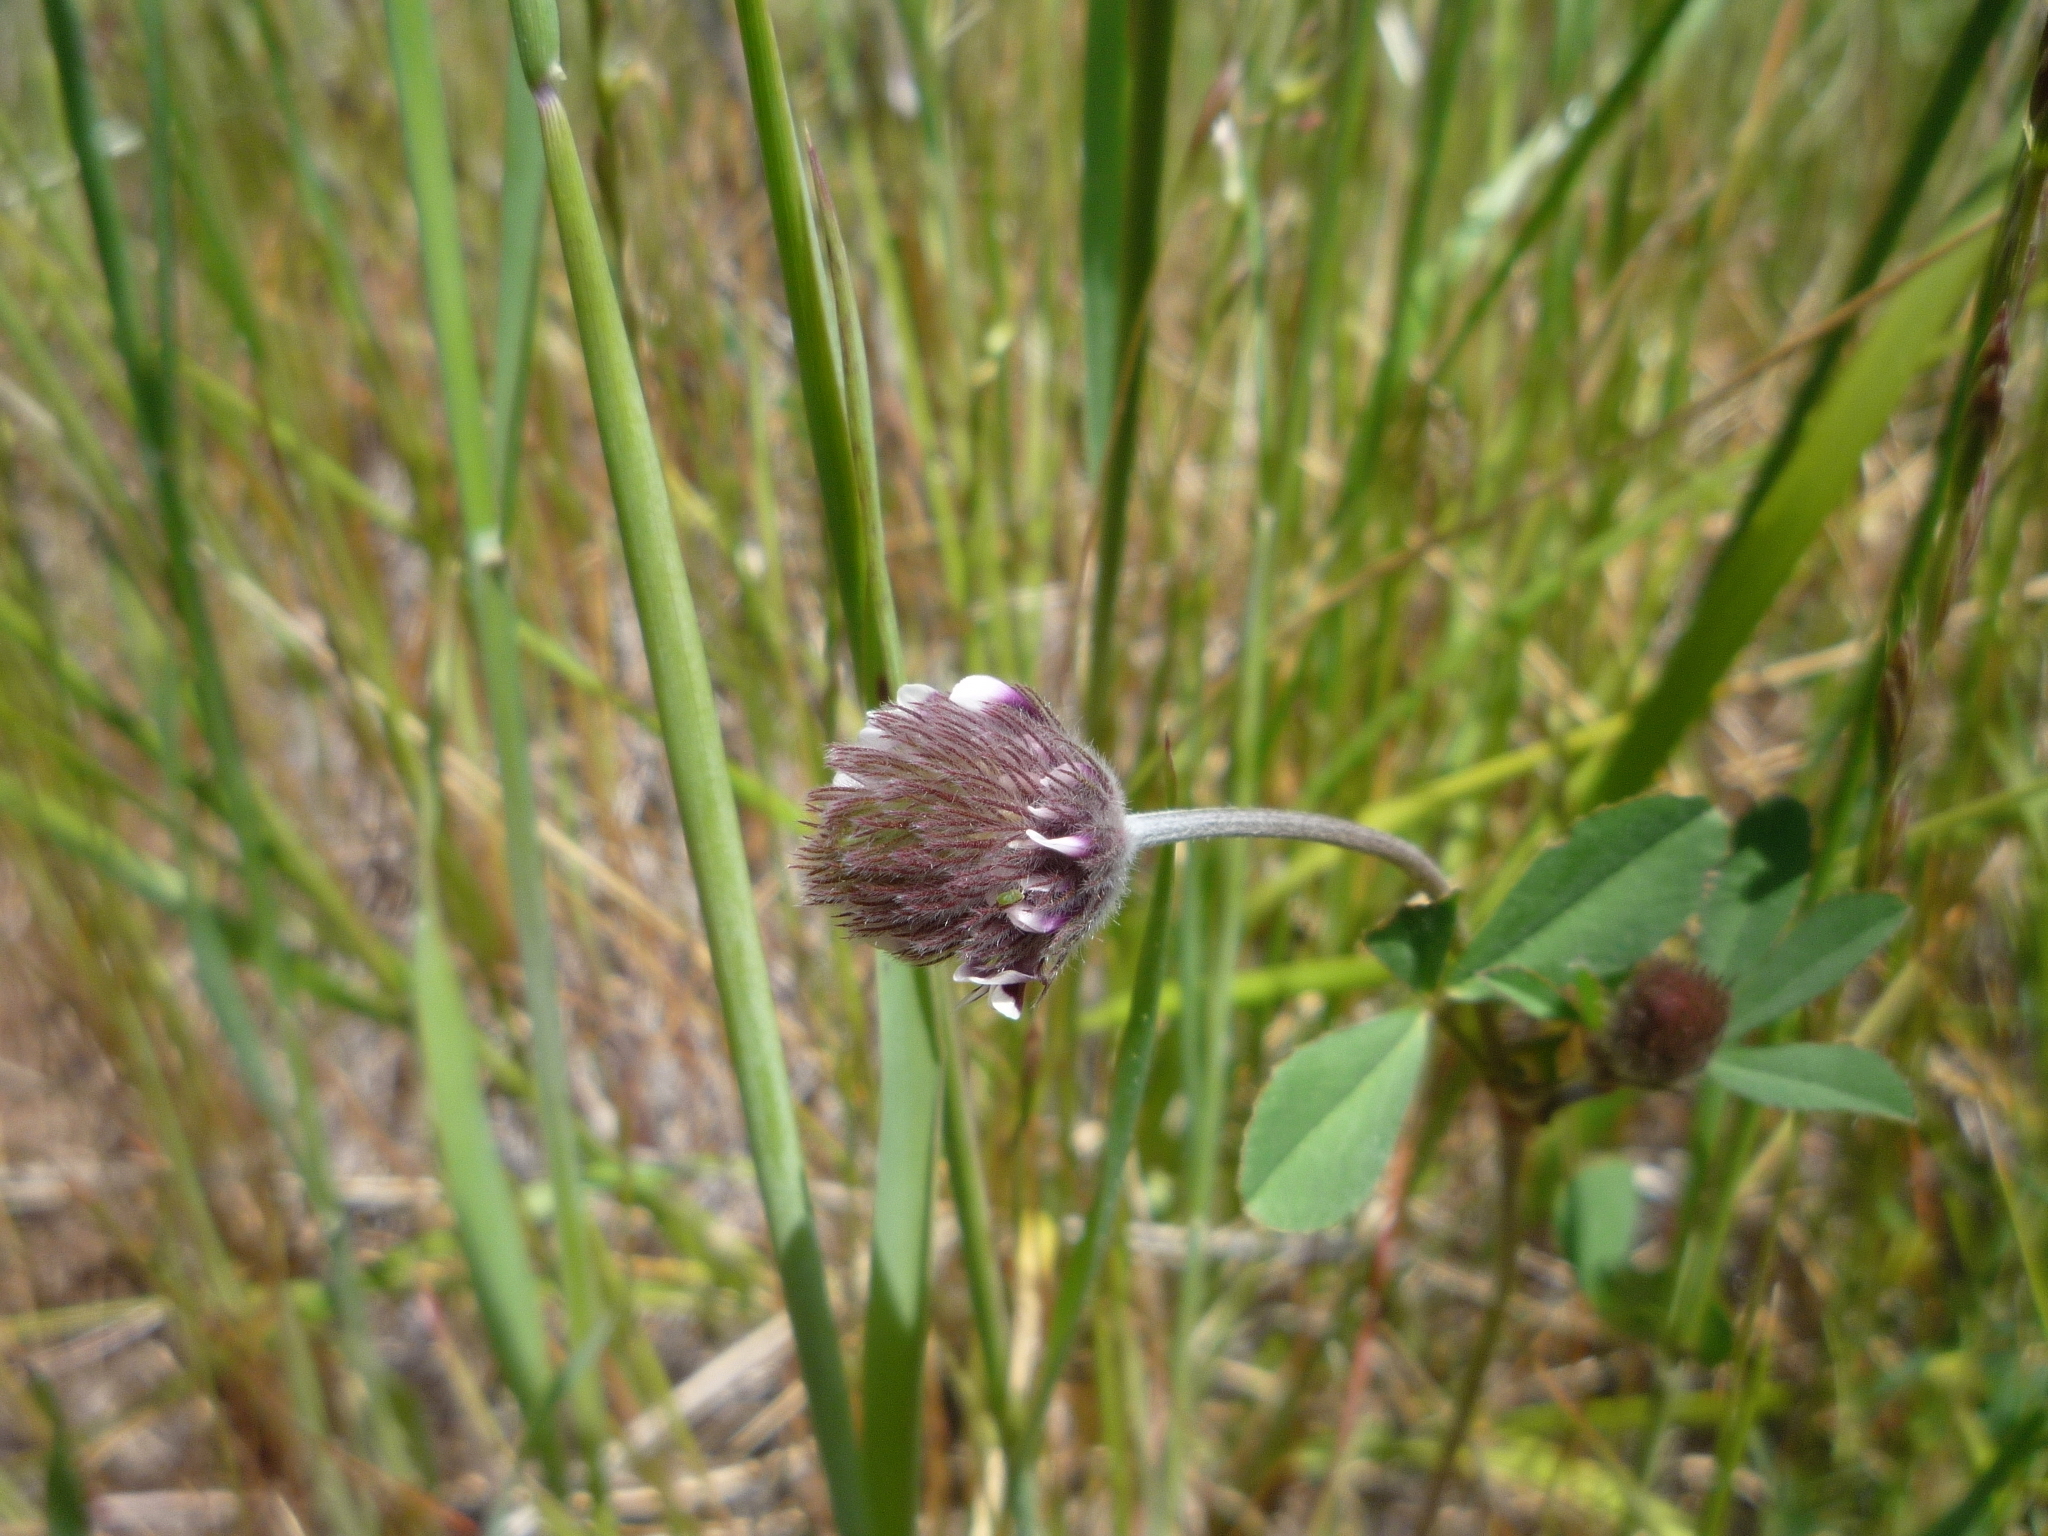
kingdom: Plantae
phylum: Tracheophyta
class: Magnoliopsida
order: Fabales
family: Fabaceae
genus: Trifolium
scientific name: Trifolium dichotomum
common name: Branched indian clover
